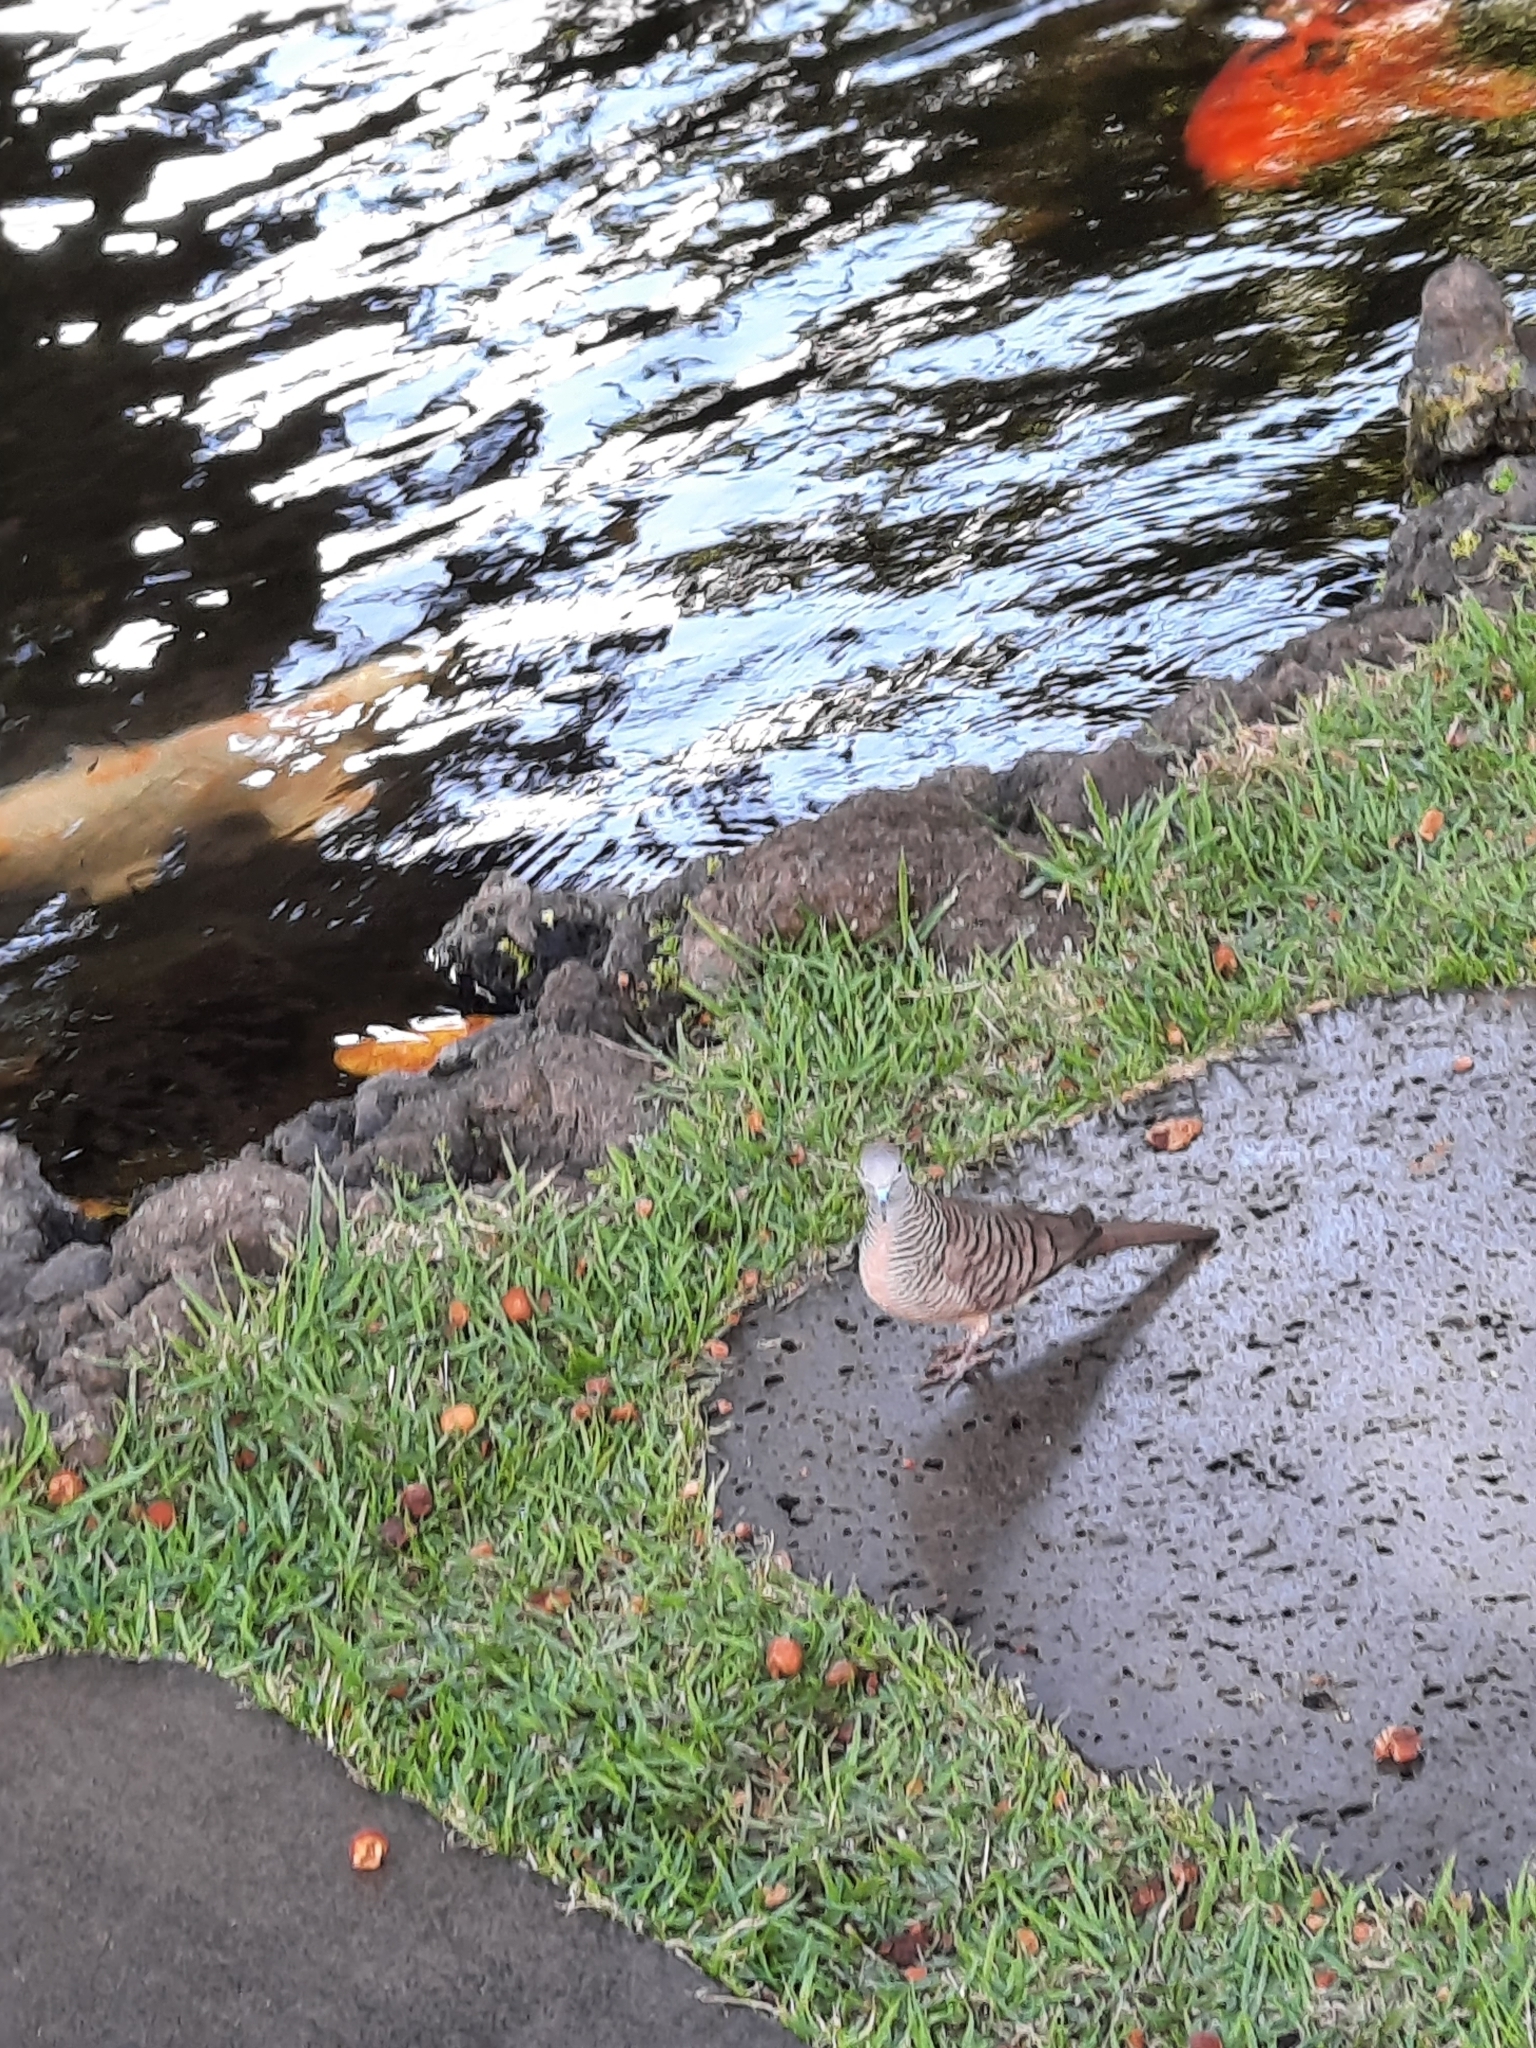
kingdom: Animalia
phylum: Chordata
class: Aves
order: Columbiformes
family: Columbidae
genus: Geopelia
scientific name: Geopelia striata
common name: Zebra dove
